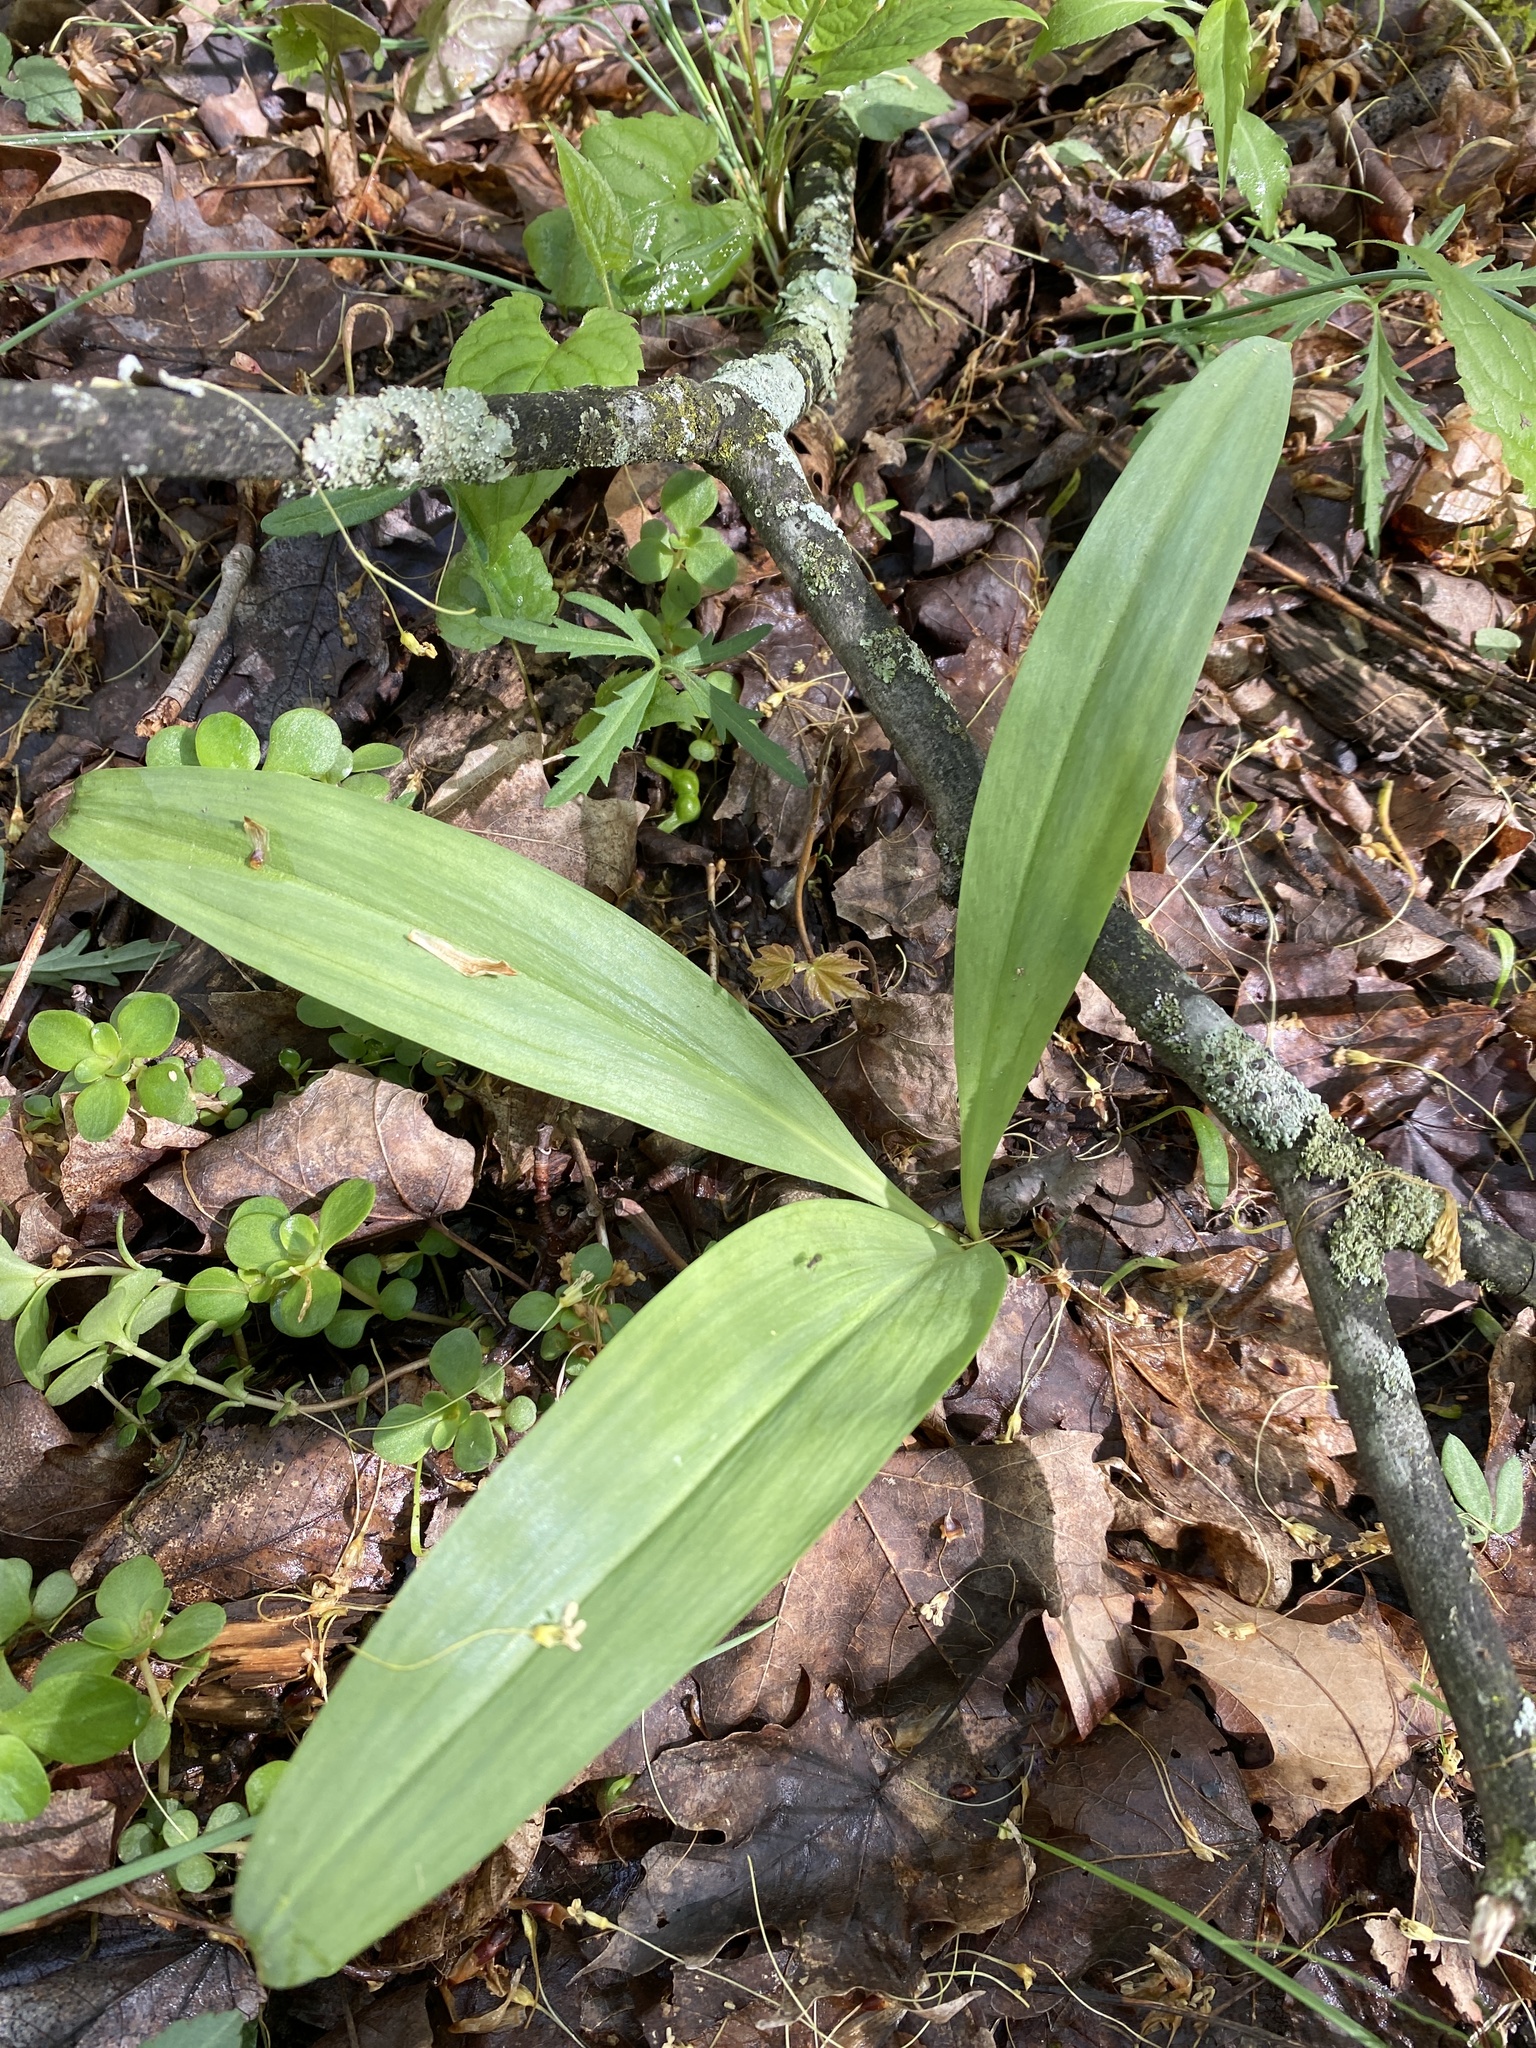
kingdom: Plantae
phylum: Tracheophyta
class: Liliopsida
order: Asparagales
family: Amaryllidaceae
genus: Allium
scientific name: Allium tricoccum
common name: Ramp
